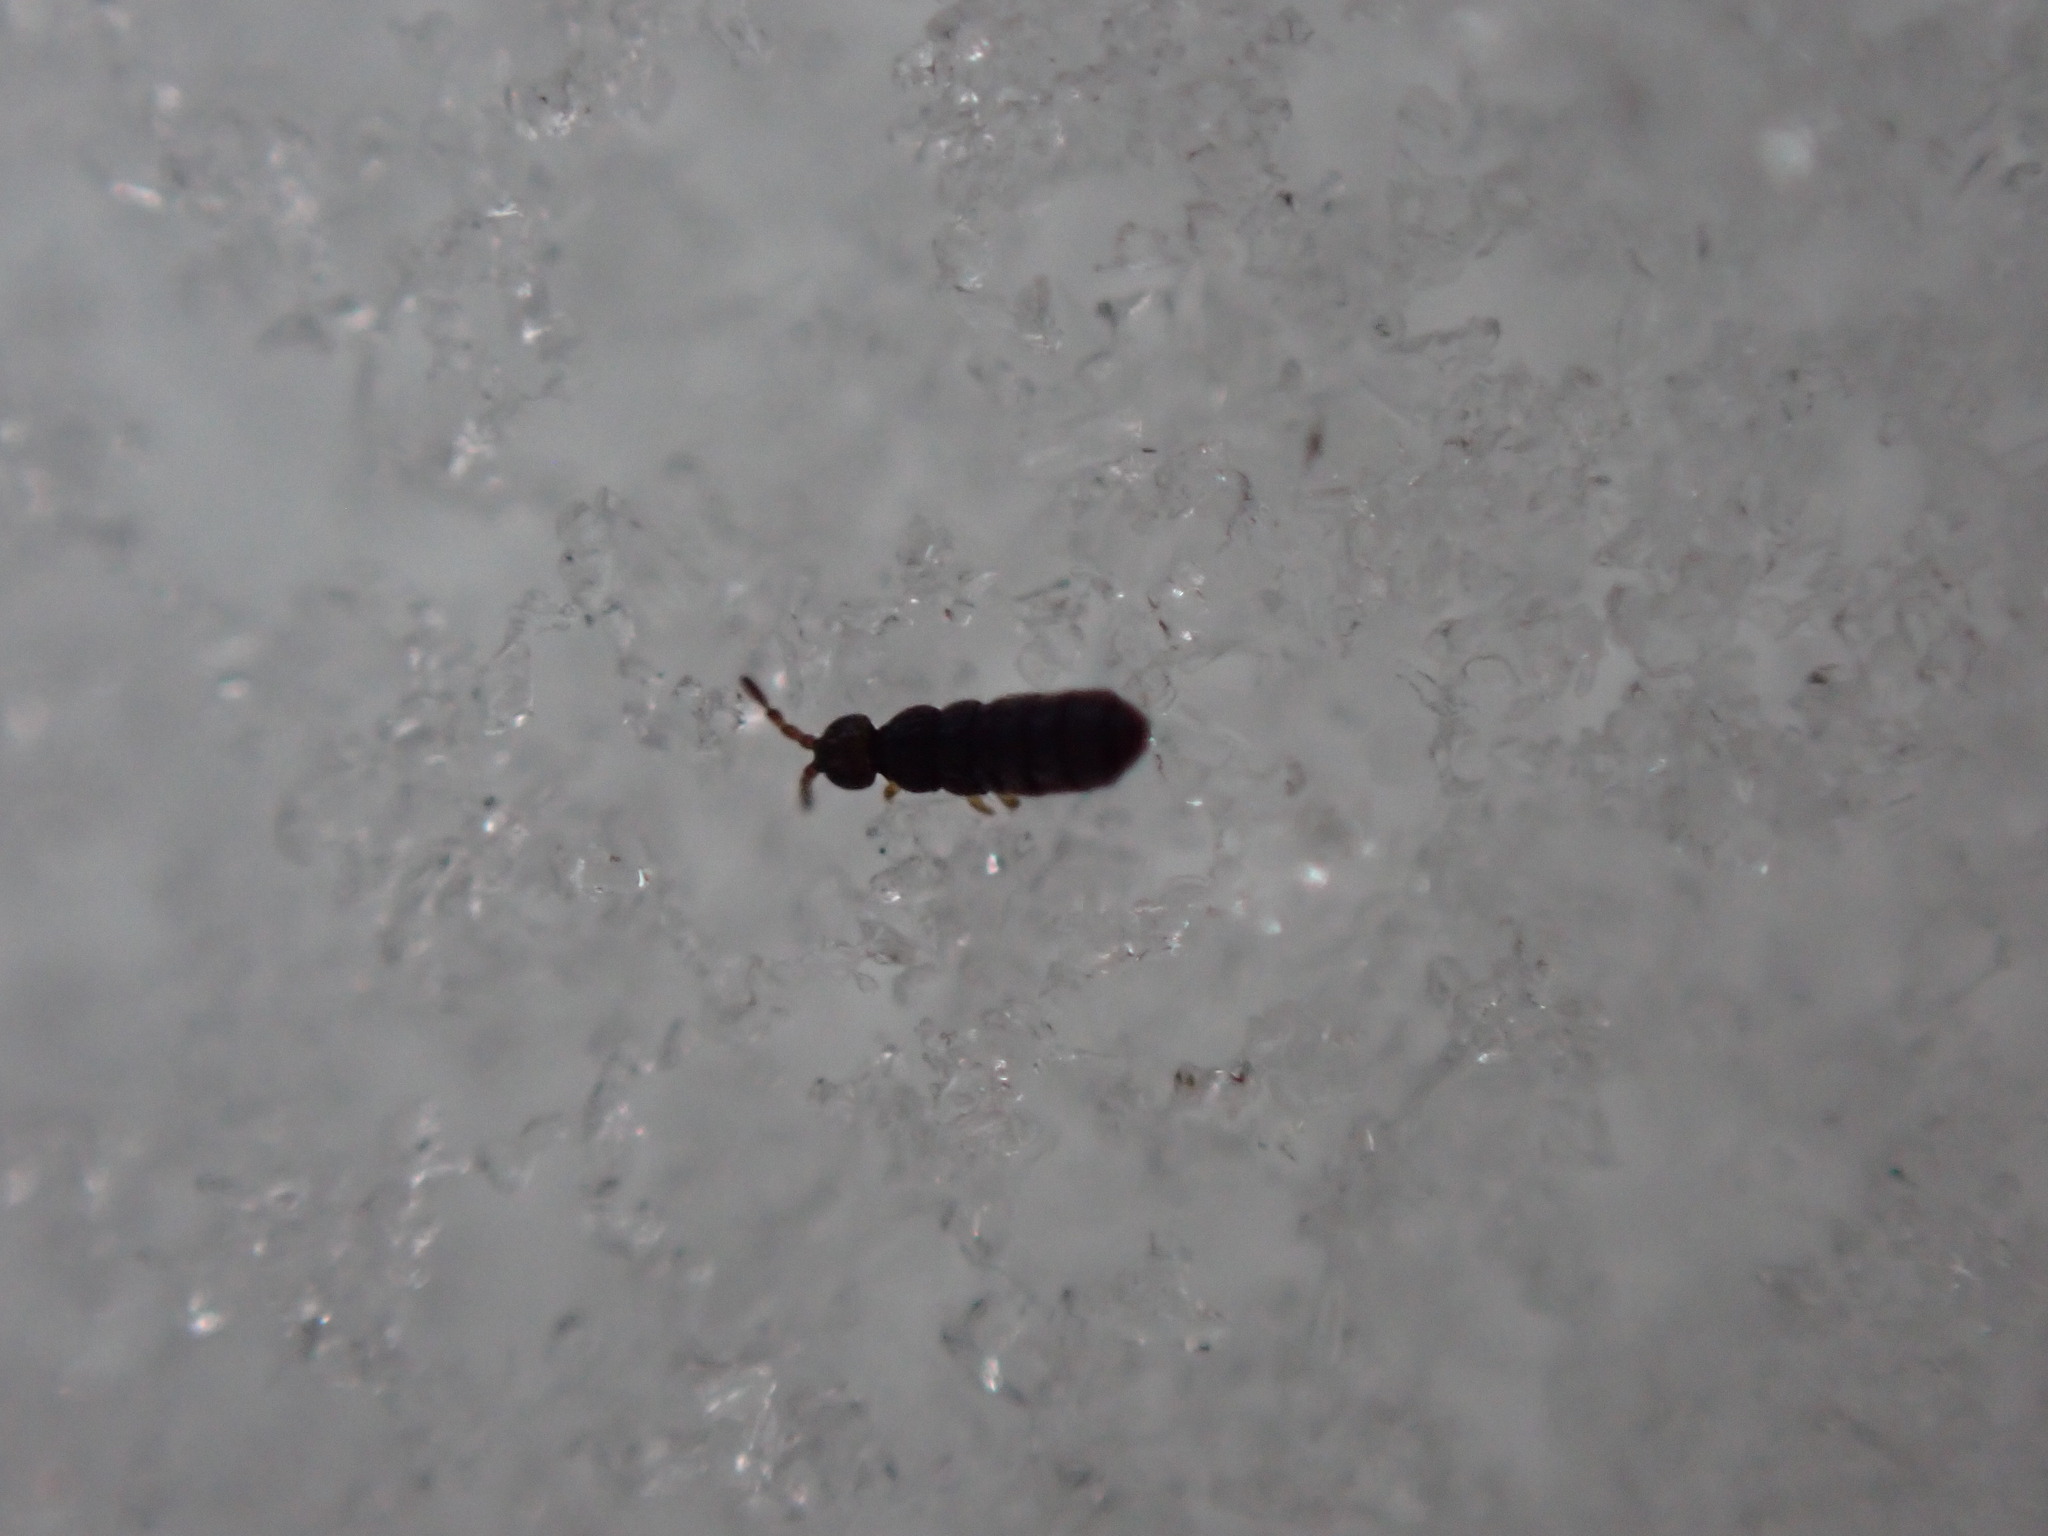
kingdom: Animalia
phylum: Arthropoda
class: Collembola
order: Entomobryomorpha
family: Isotomidae
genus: Desoria
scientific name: Desoria canadensis
